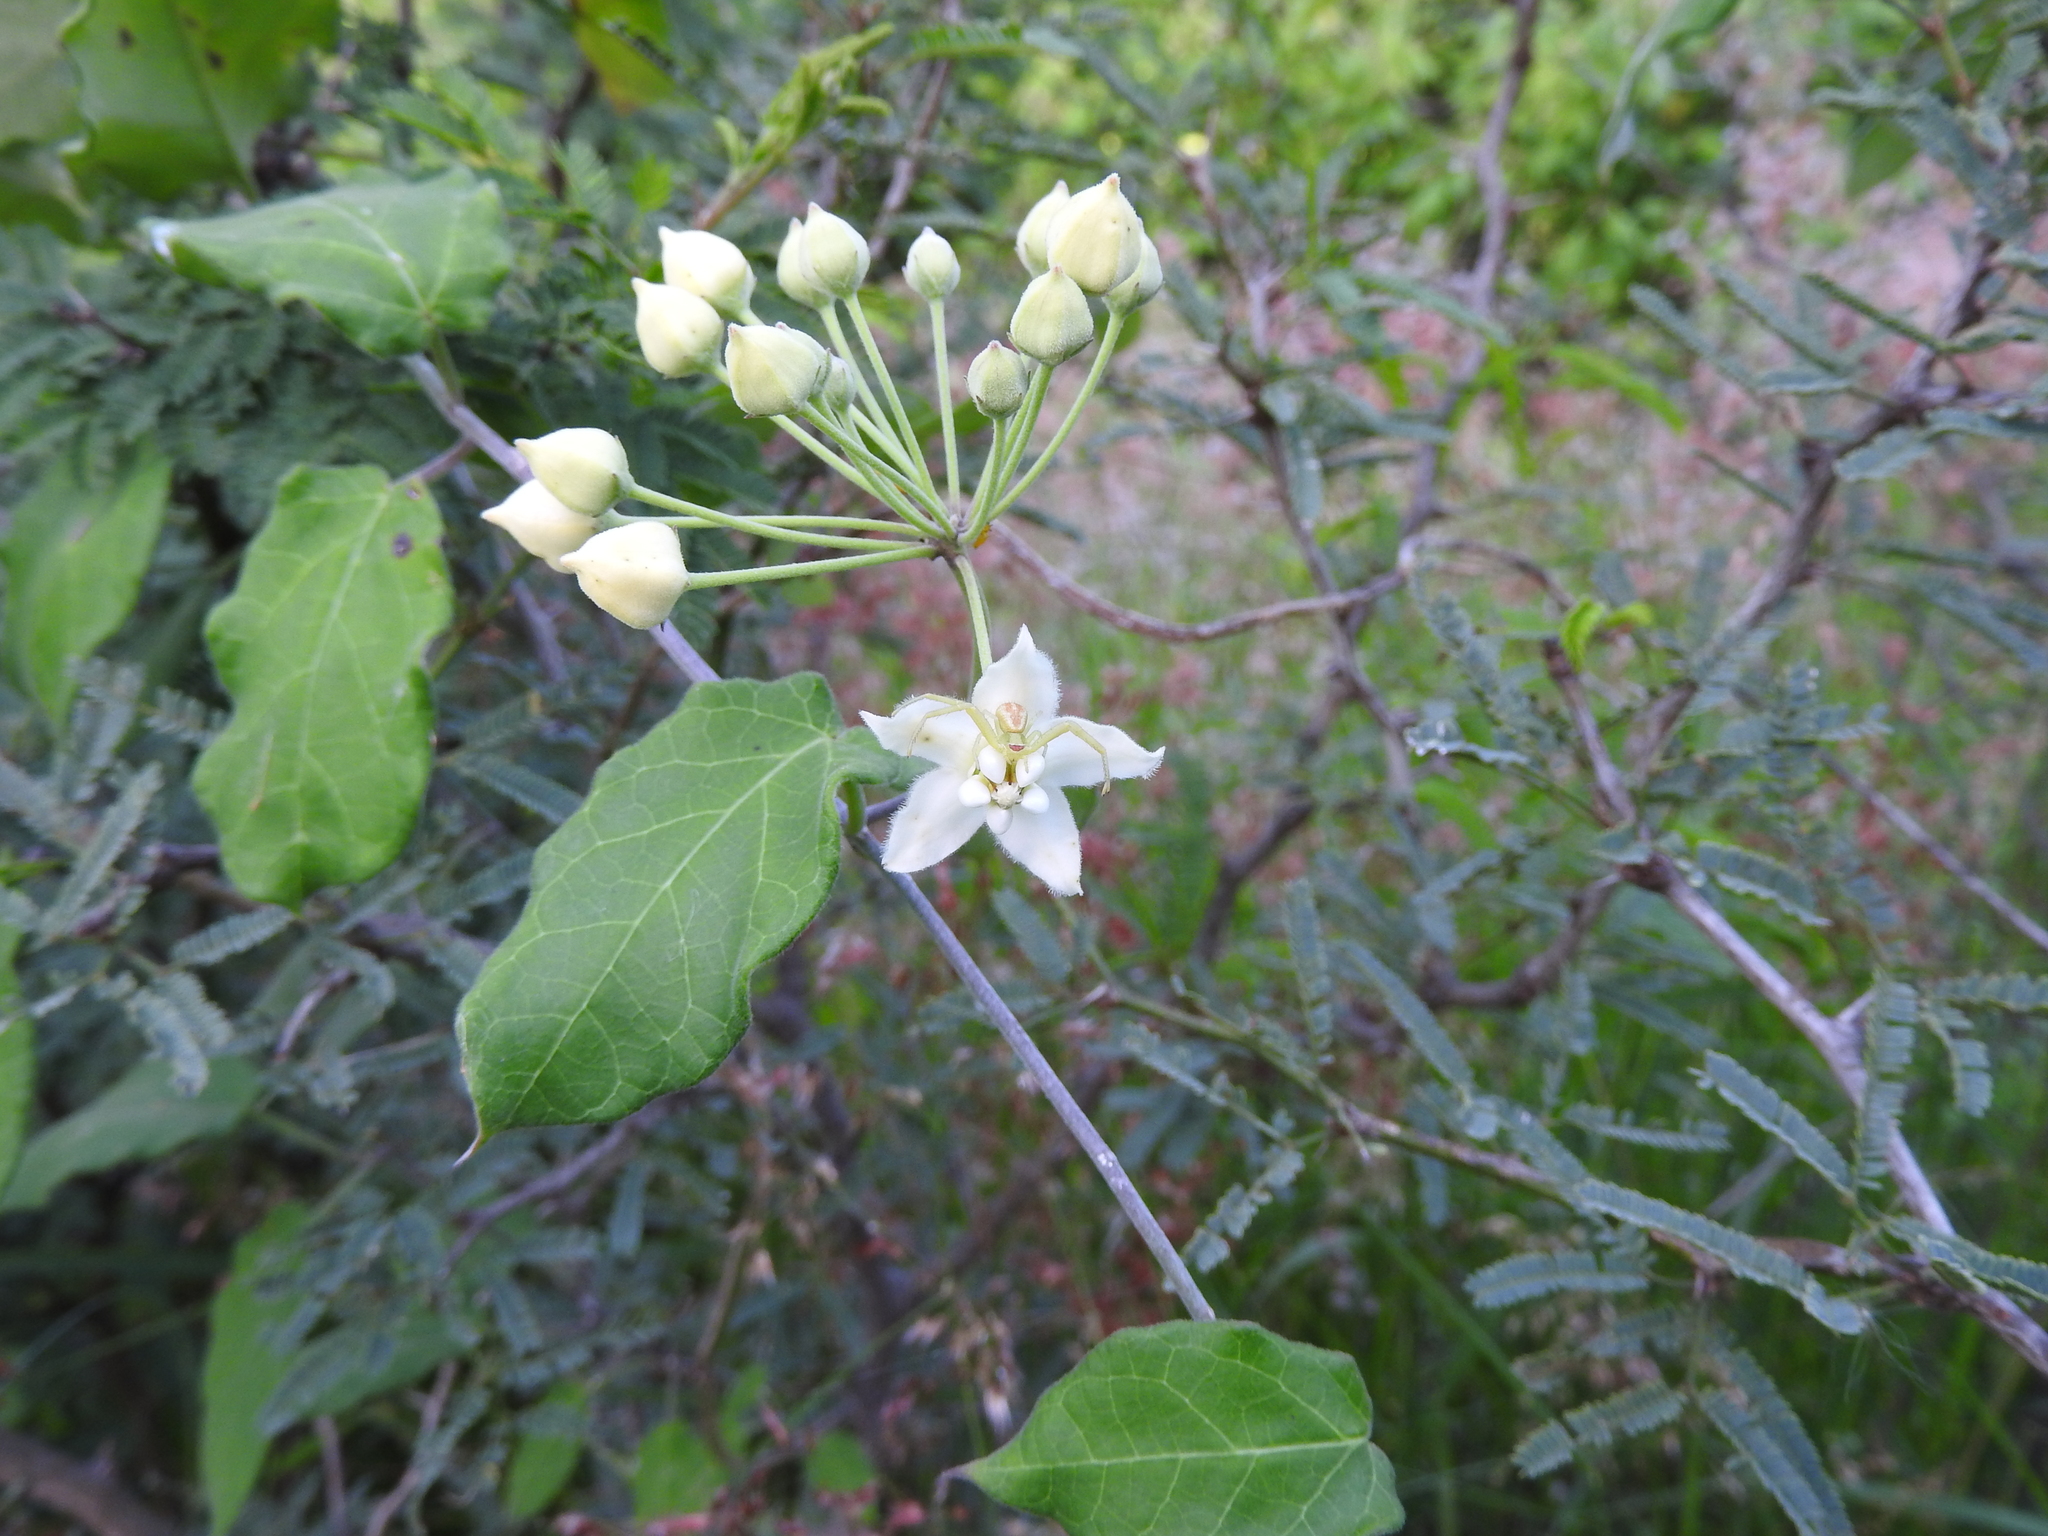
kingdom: Plantae
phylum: Tracheophyta
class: Magnoliopsida
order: Gentianales
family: Apocynaceae
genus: Funastrum
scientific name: Funastrum pannosum
